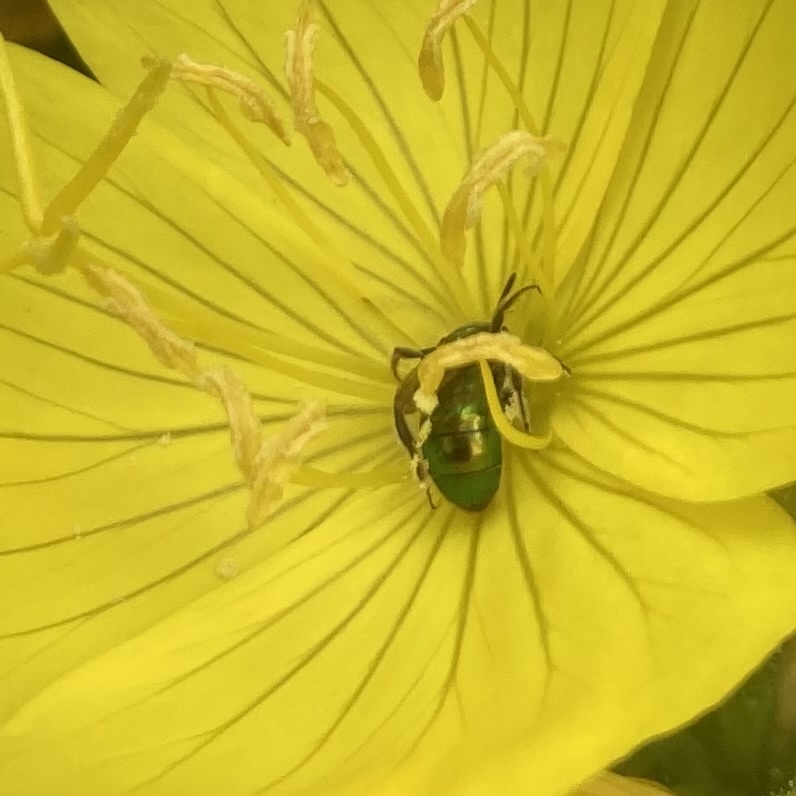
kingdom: Animalia
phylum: Arthropoda
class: Insecta
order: Hymenoptera
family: Halictidae
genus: Augochlora
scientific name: Augochlora pura
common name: Pure green sweat bee
